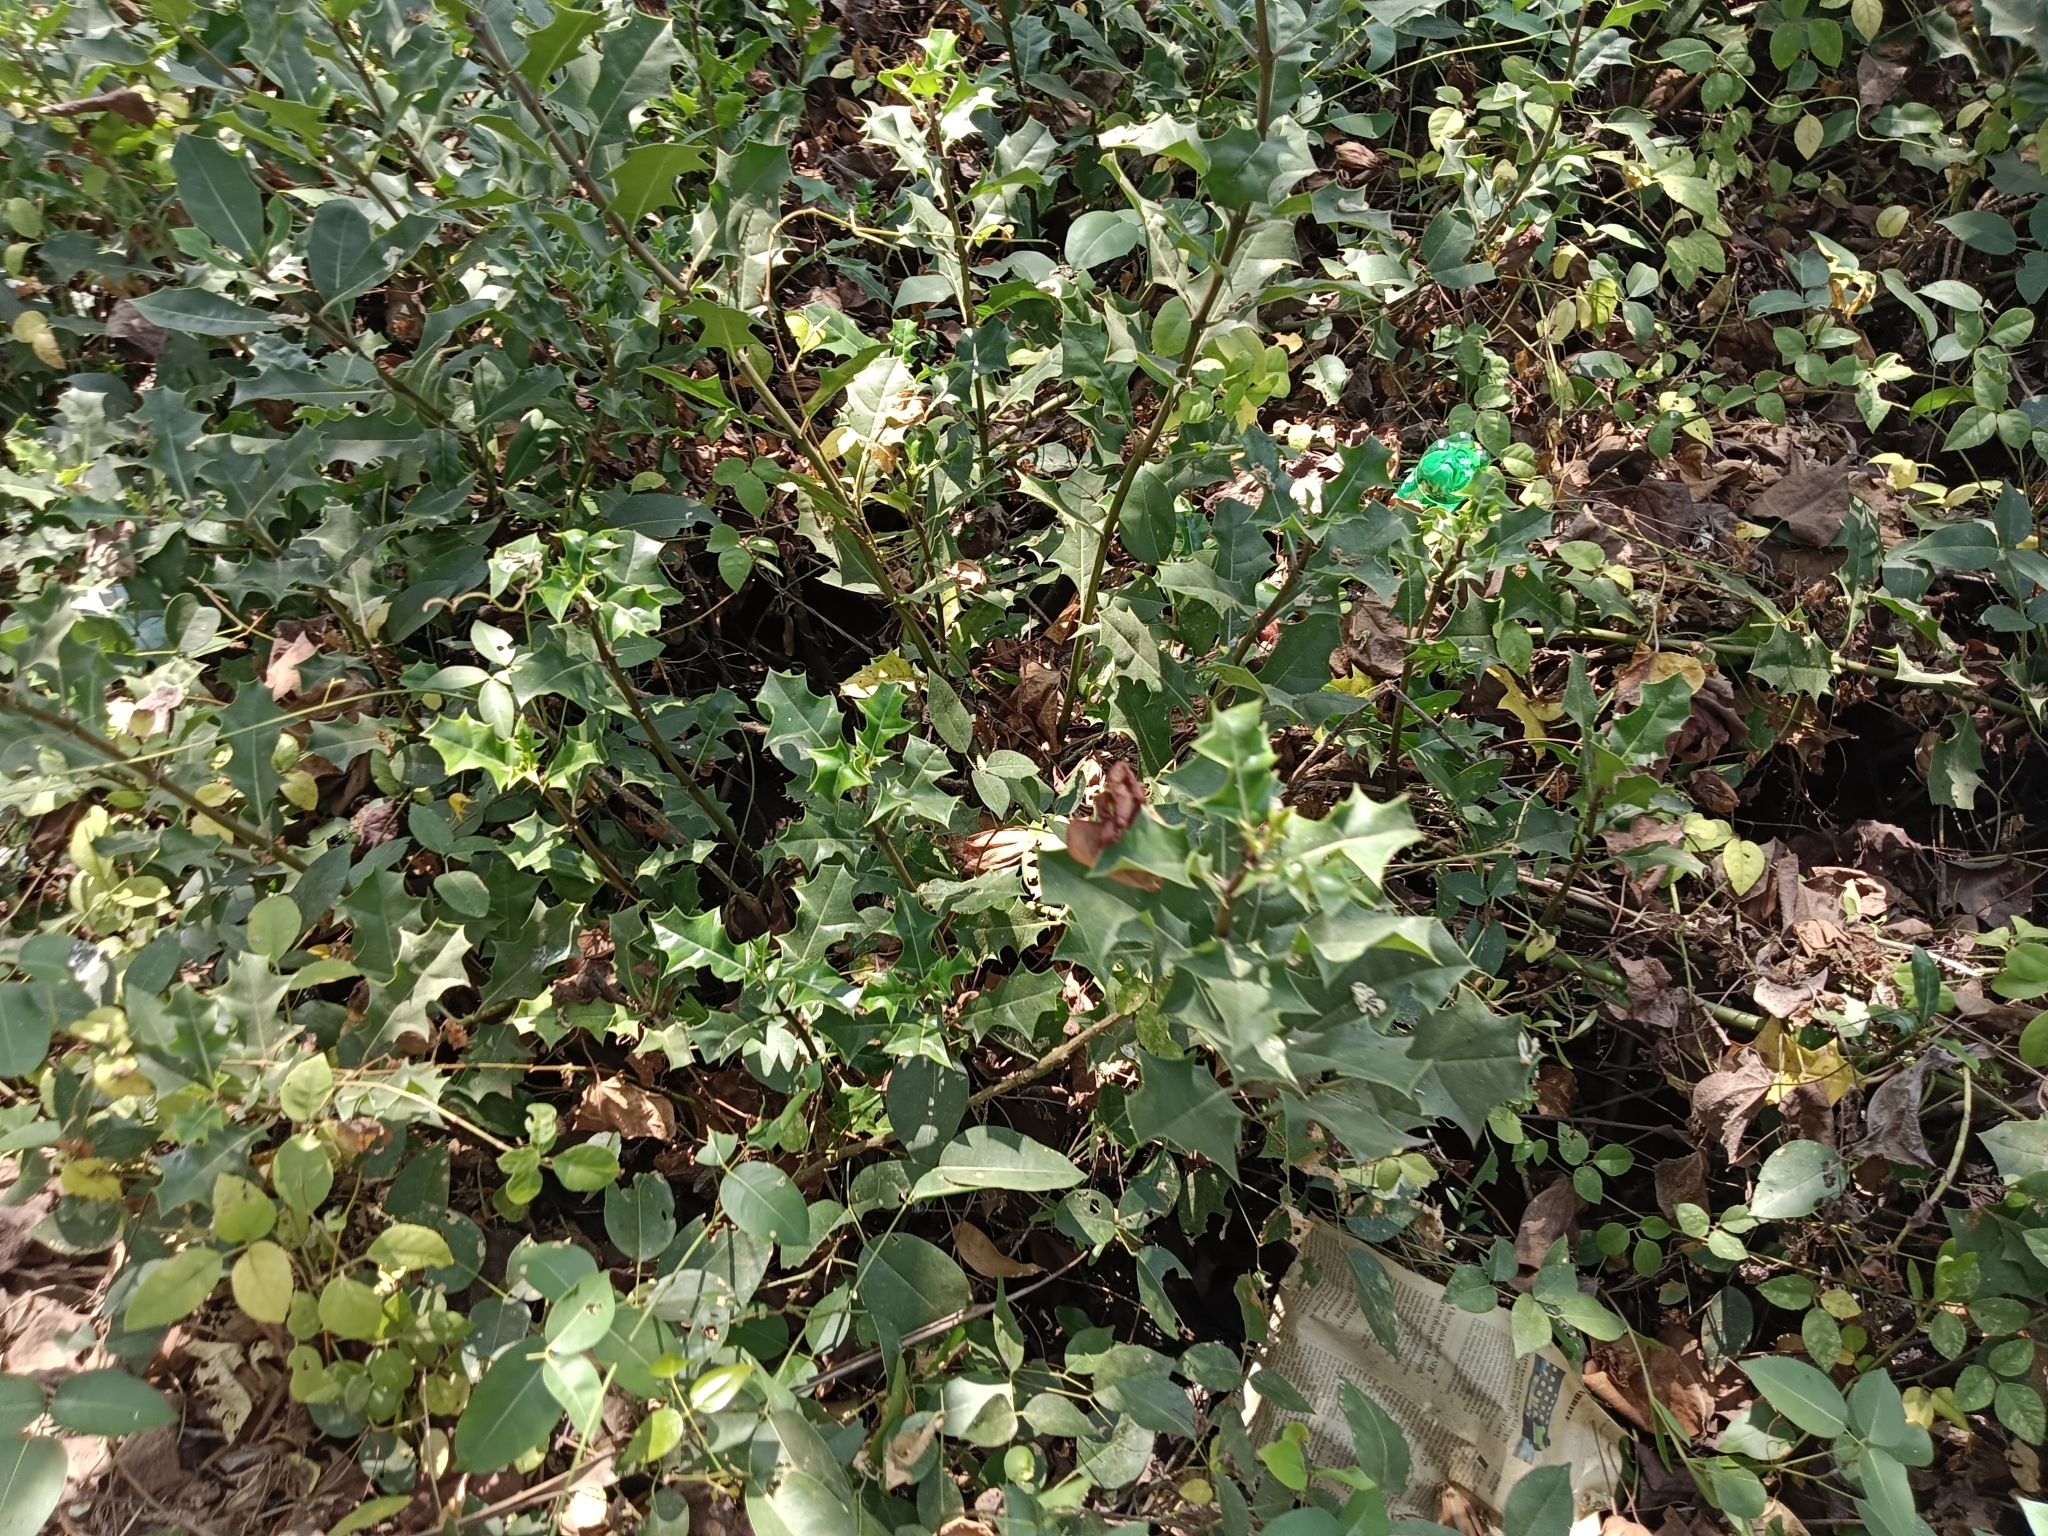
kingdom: Plantae
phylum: Tracheophyta
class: Magnoliopsida
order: Lamiales
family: Acanthaceae
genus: Acanthus
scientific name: Acanthus ilicifolius
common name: Holy mangrove
